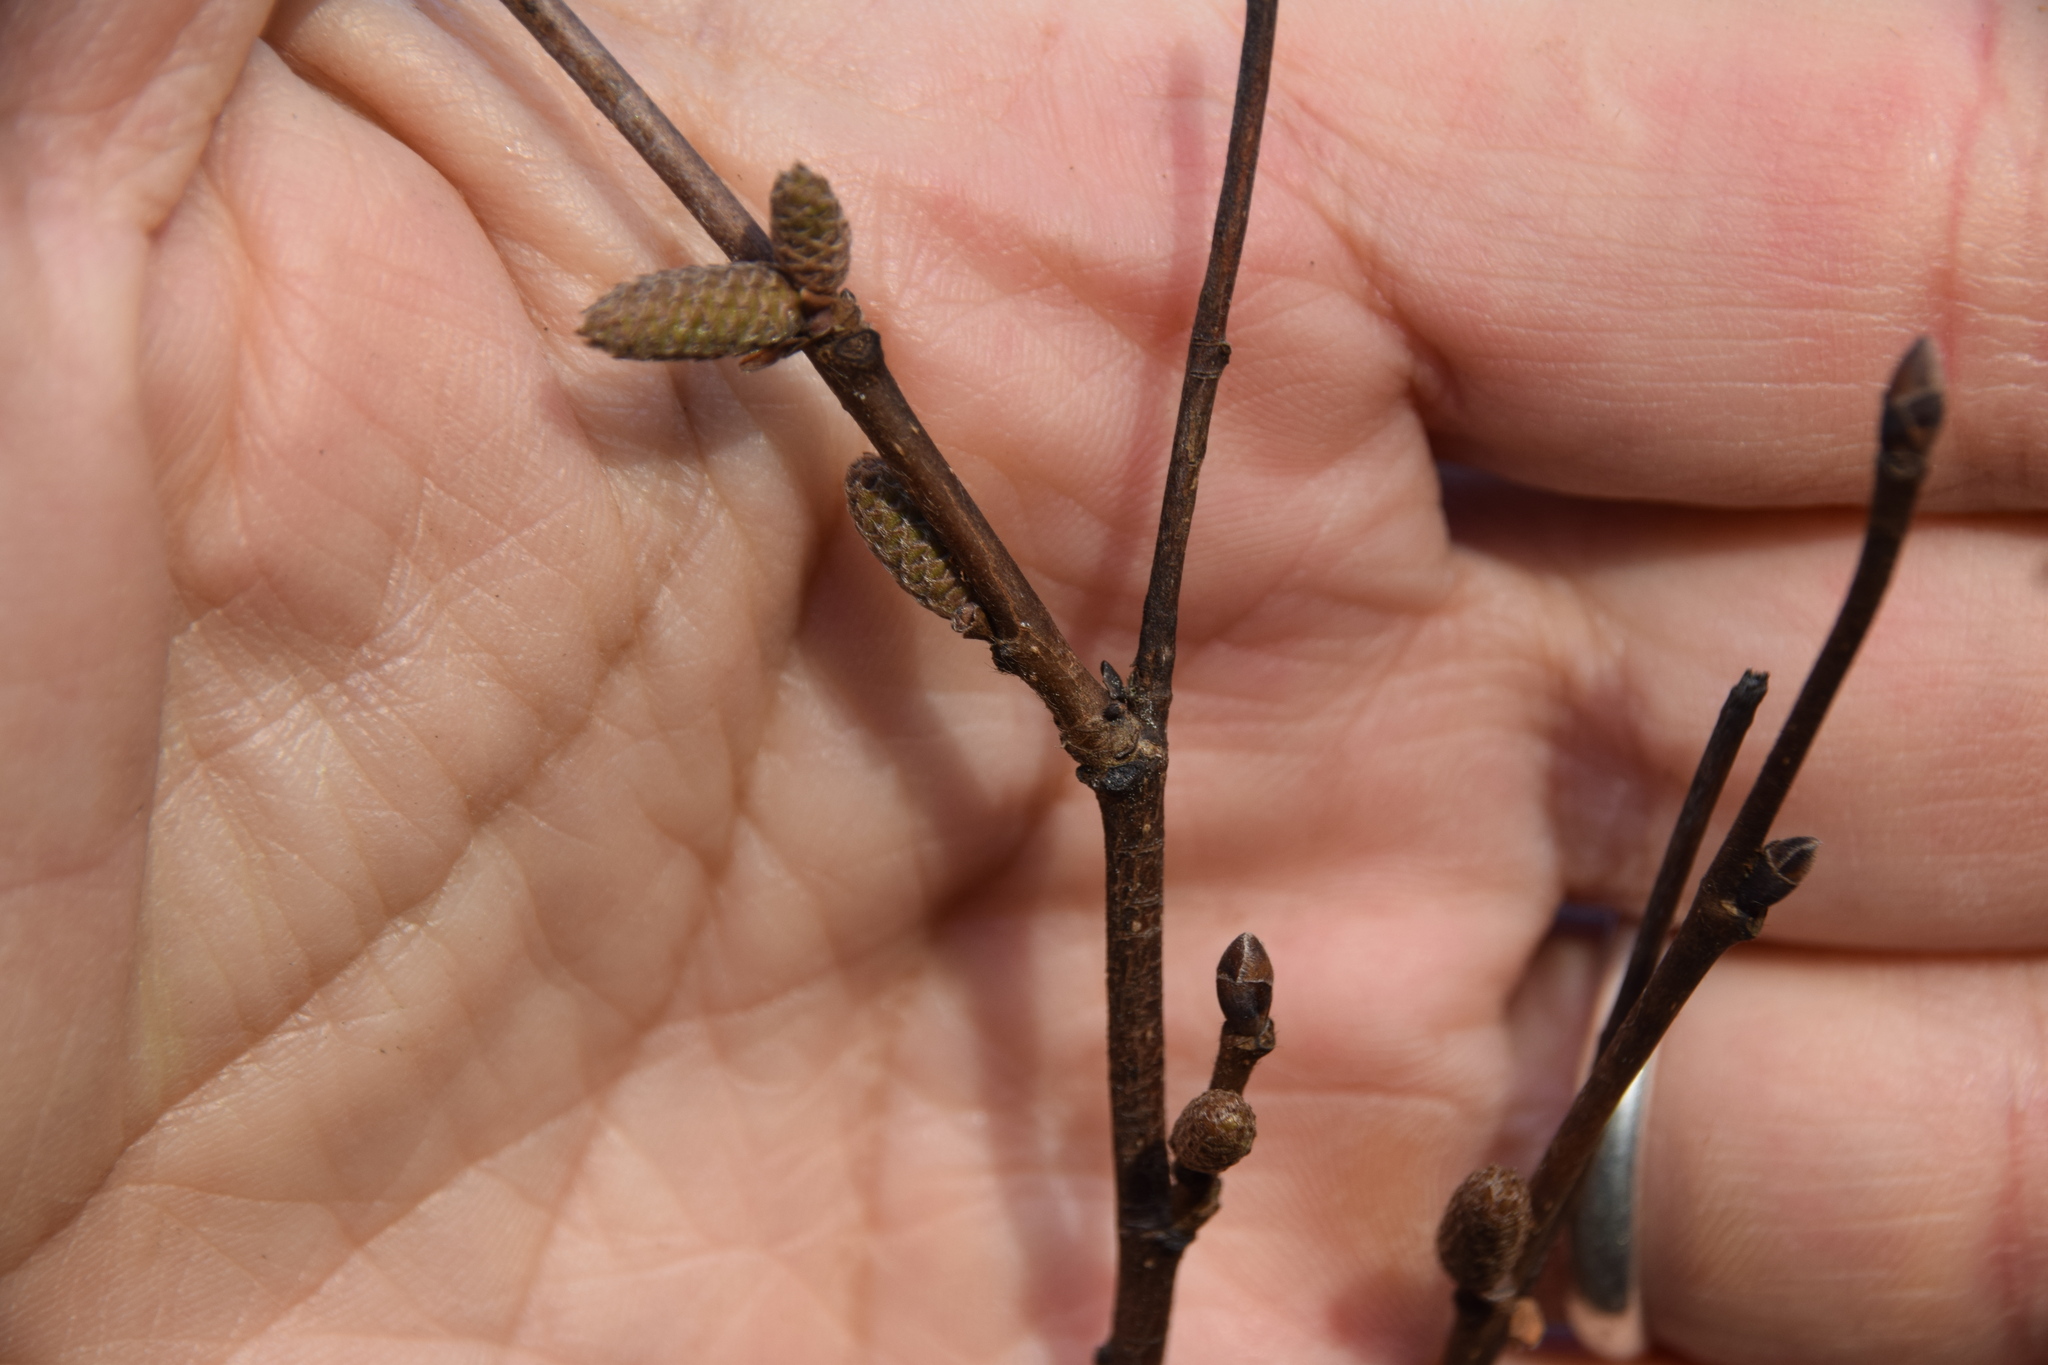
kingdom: Plantae
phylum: Tracheophyta
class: Magnoliopsida
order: Fagales
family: Betulaceae
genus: Corylus
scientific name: Corylus cornuta
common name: Beaked hazel
